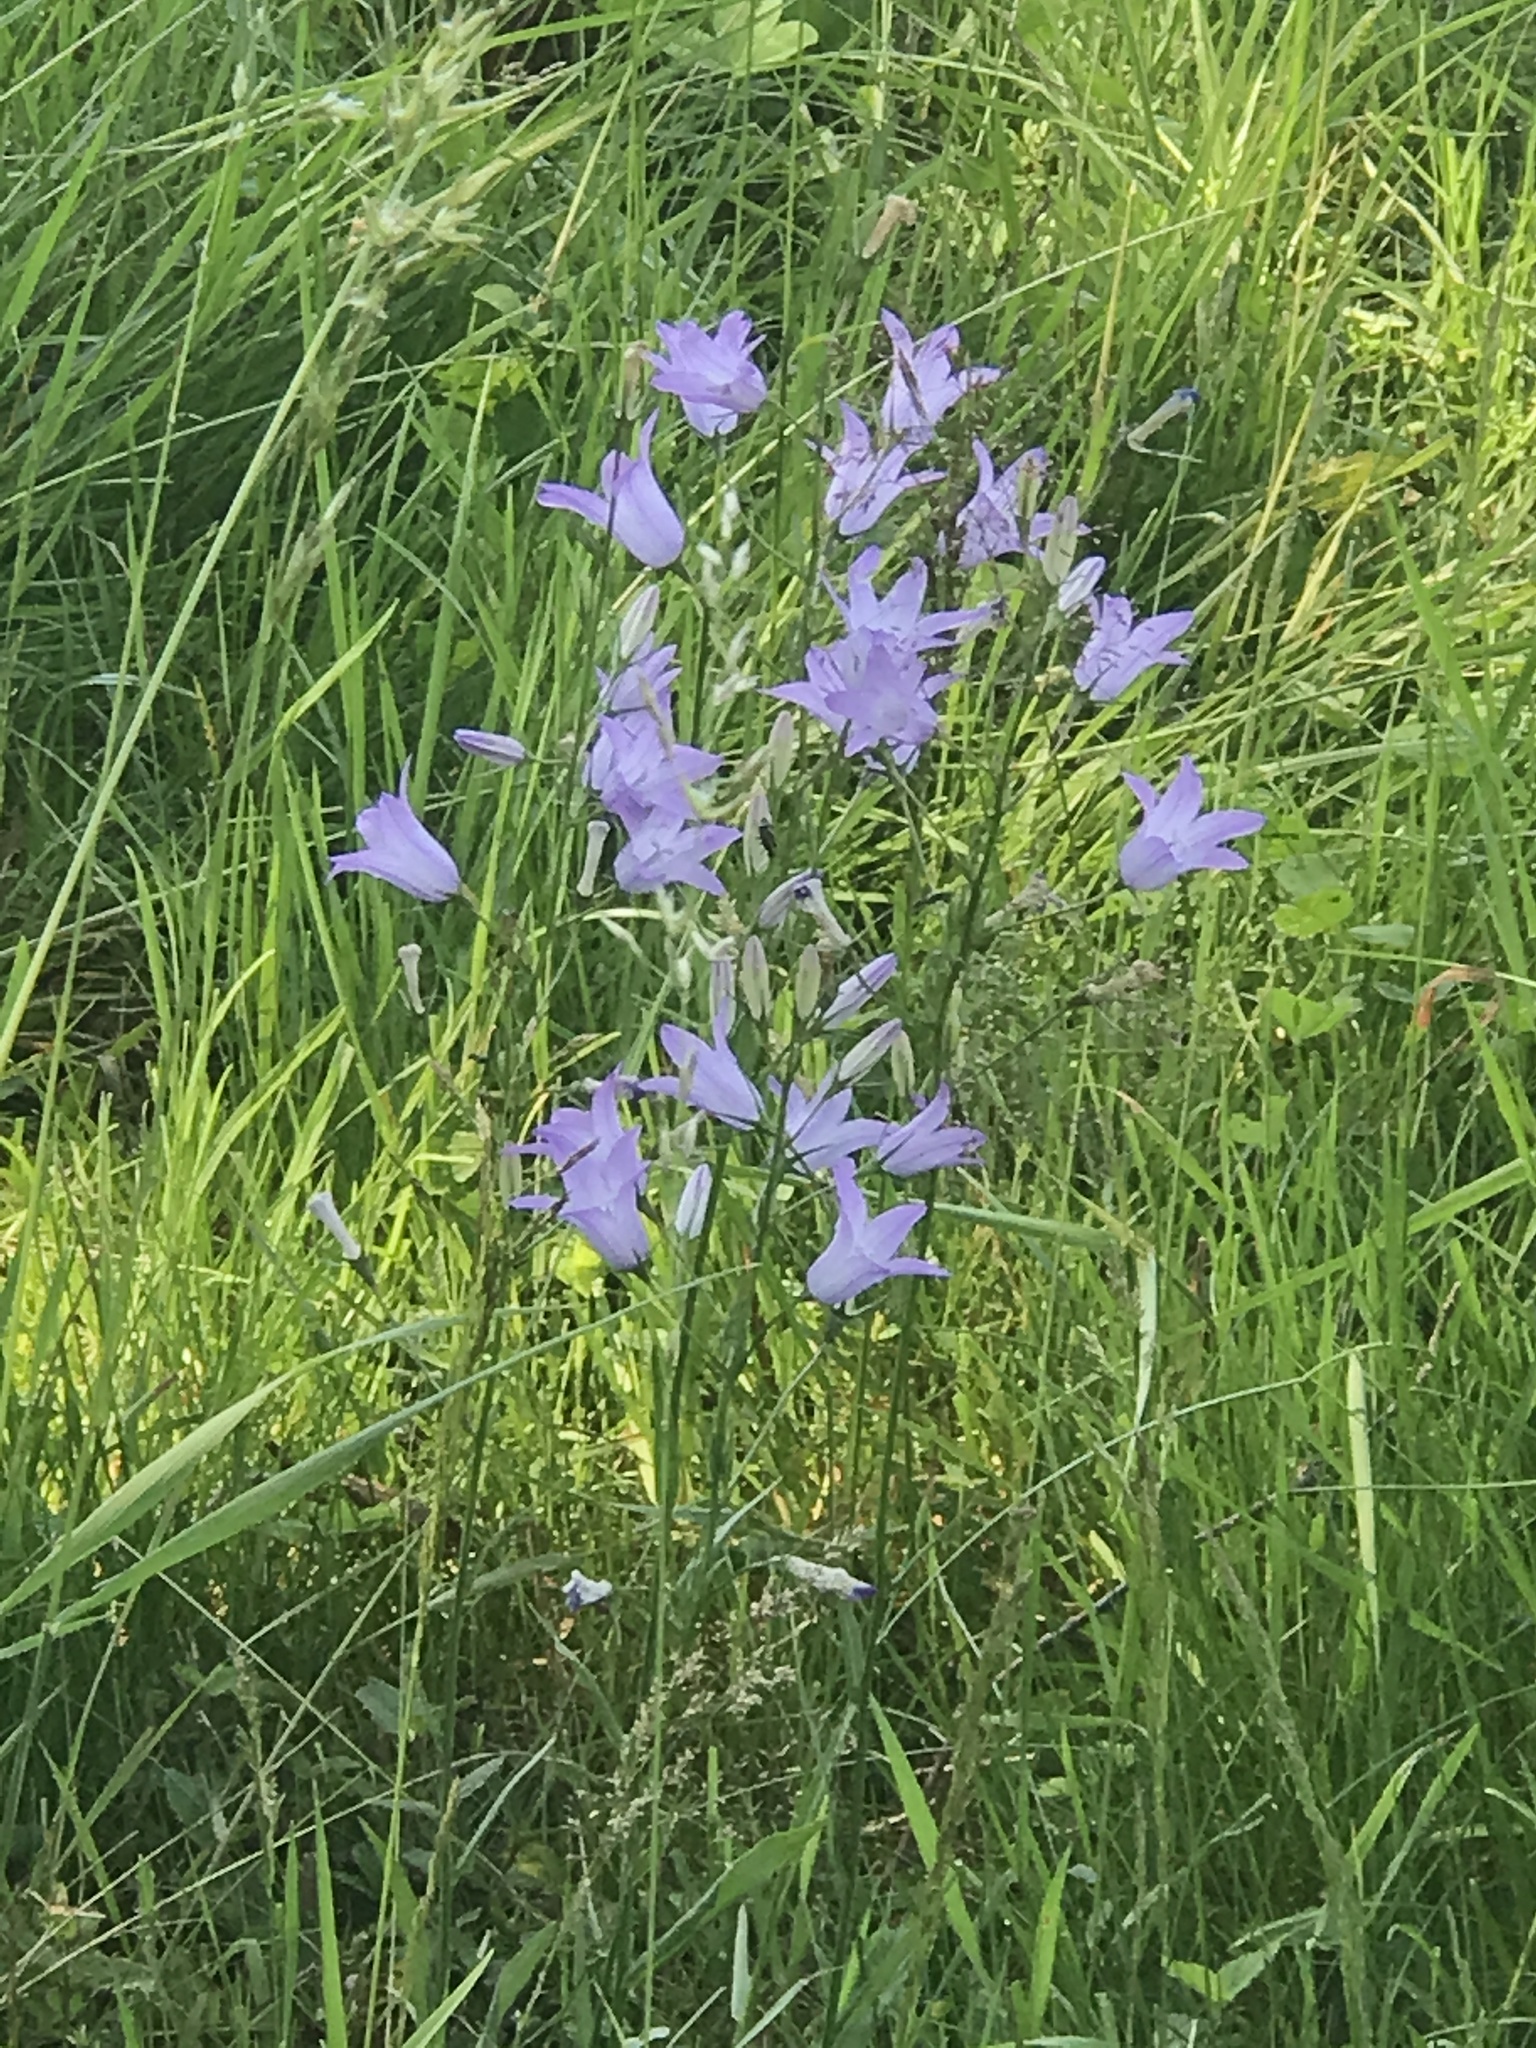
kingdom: Plantae
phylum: Tracheophyta
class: Magnoliopsida
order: Asterales
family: Campanulaceae
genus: Campanula
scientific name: Campanula rapunculus
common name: Rampion bellflower
